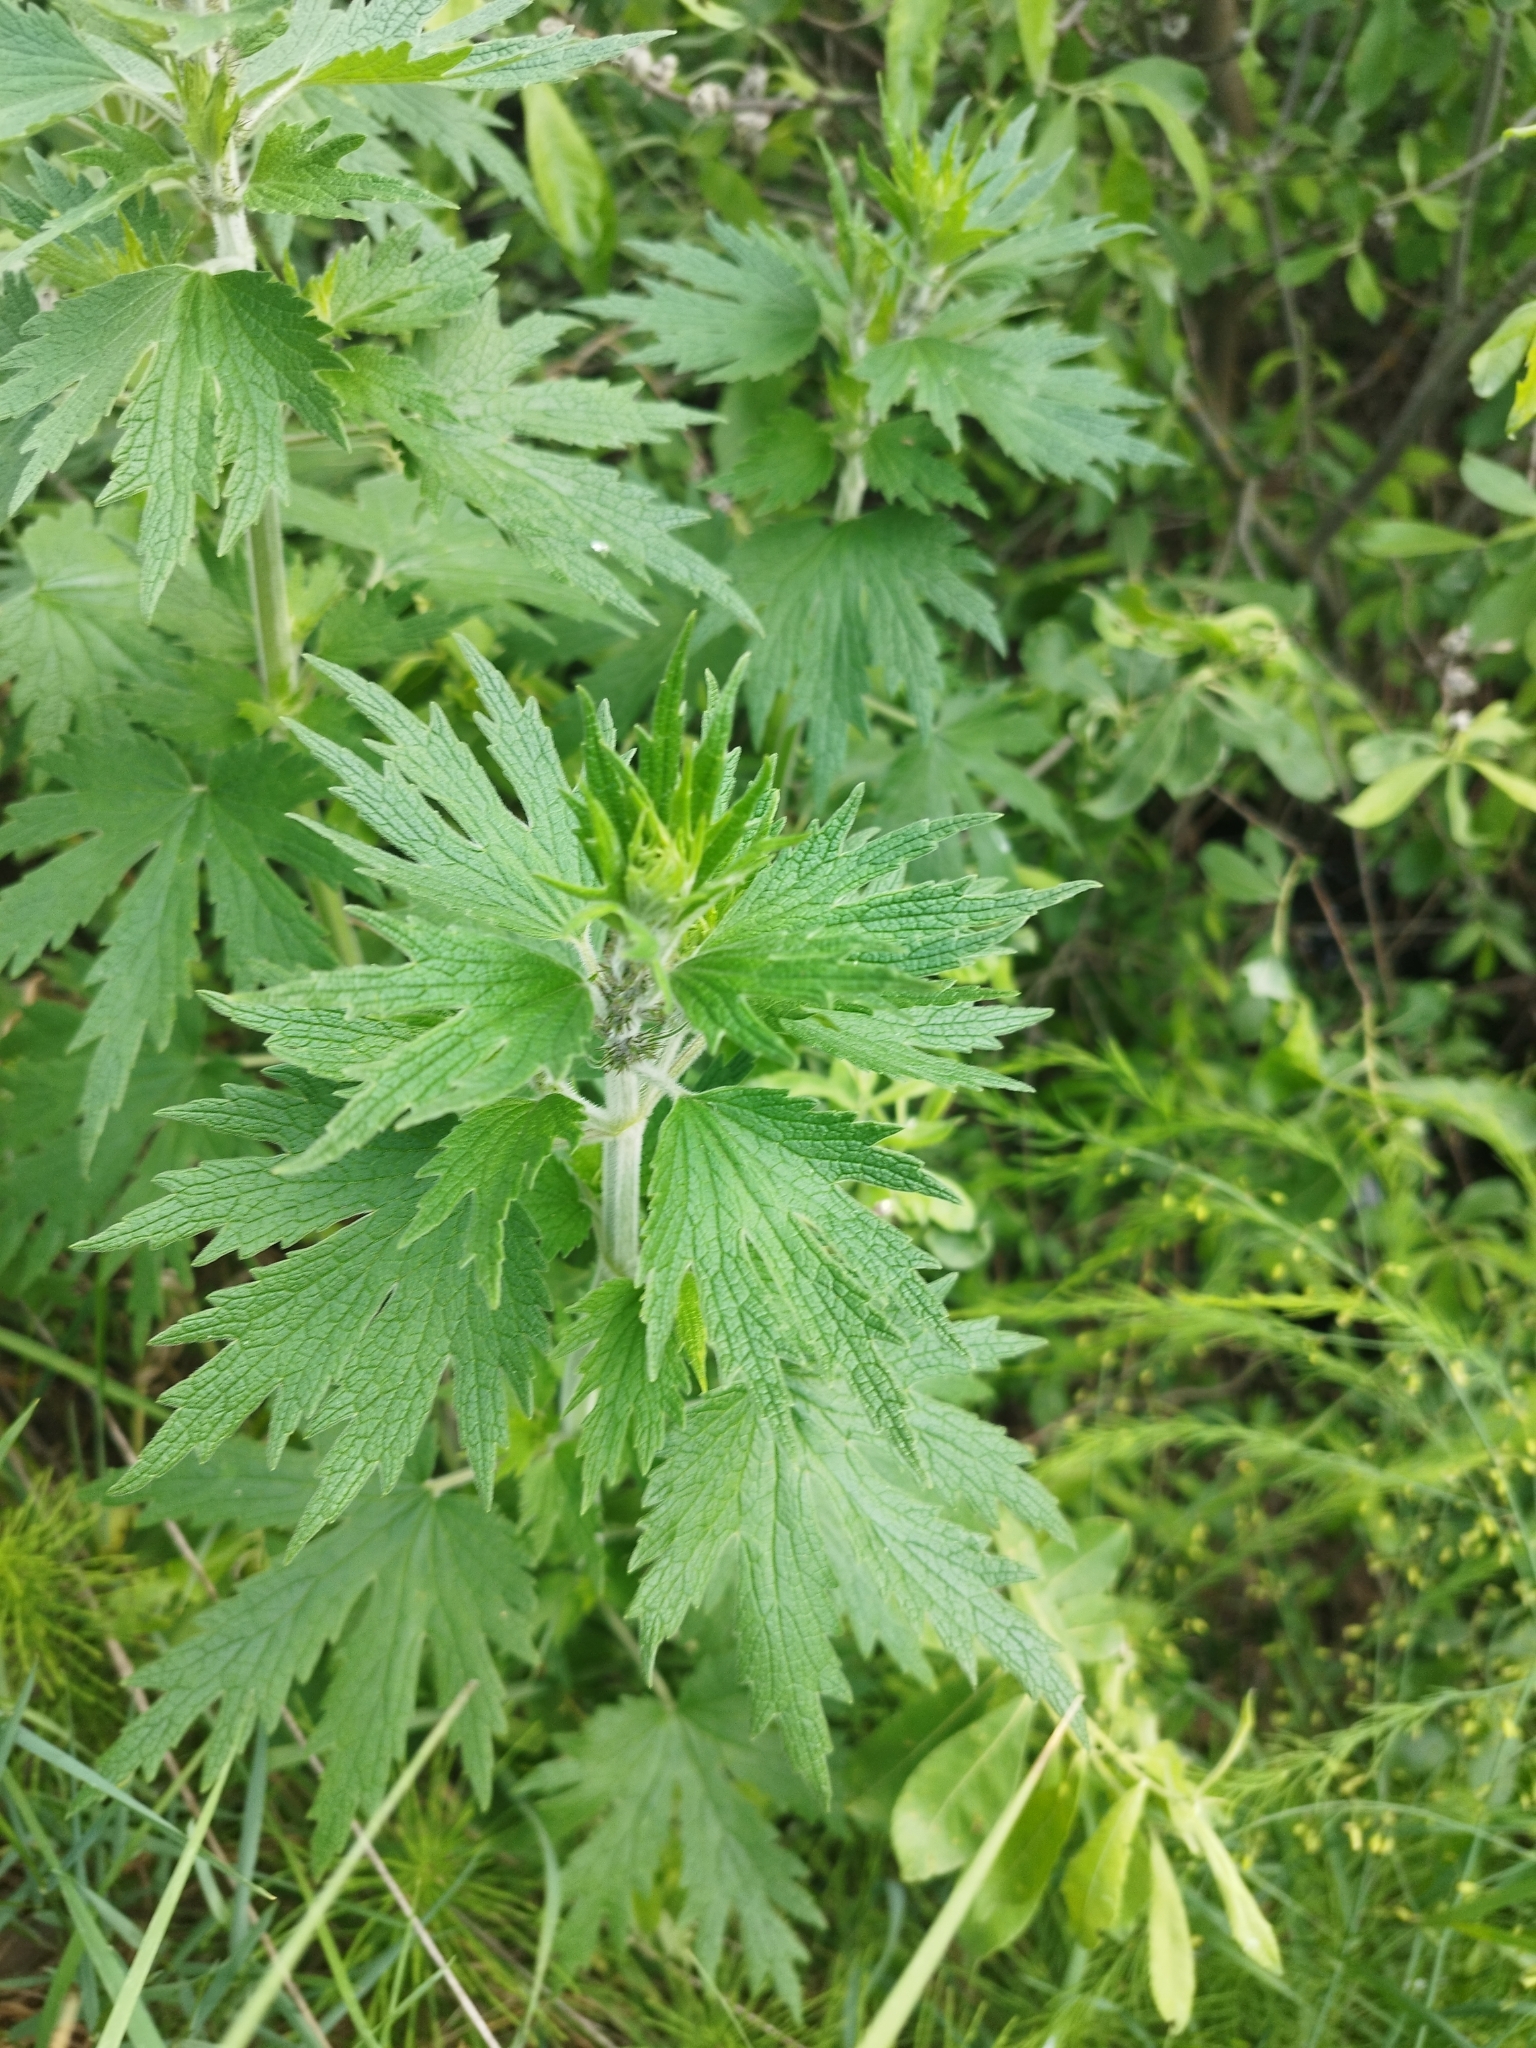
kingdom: Plantae
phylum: Tracheophyta
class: Magnoliopsida
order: Lamiales
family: Lamiaceae
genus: Leonurus
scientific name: Leonurus quinquelobatus
